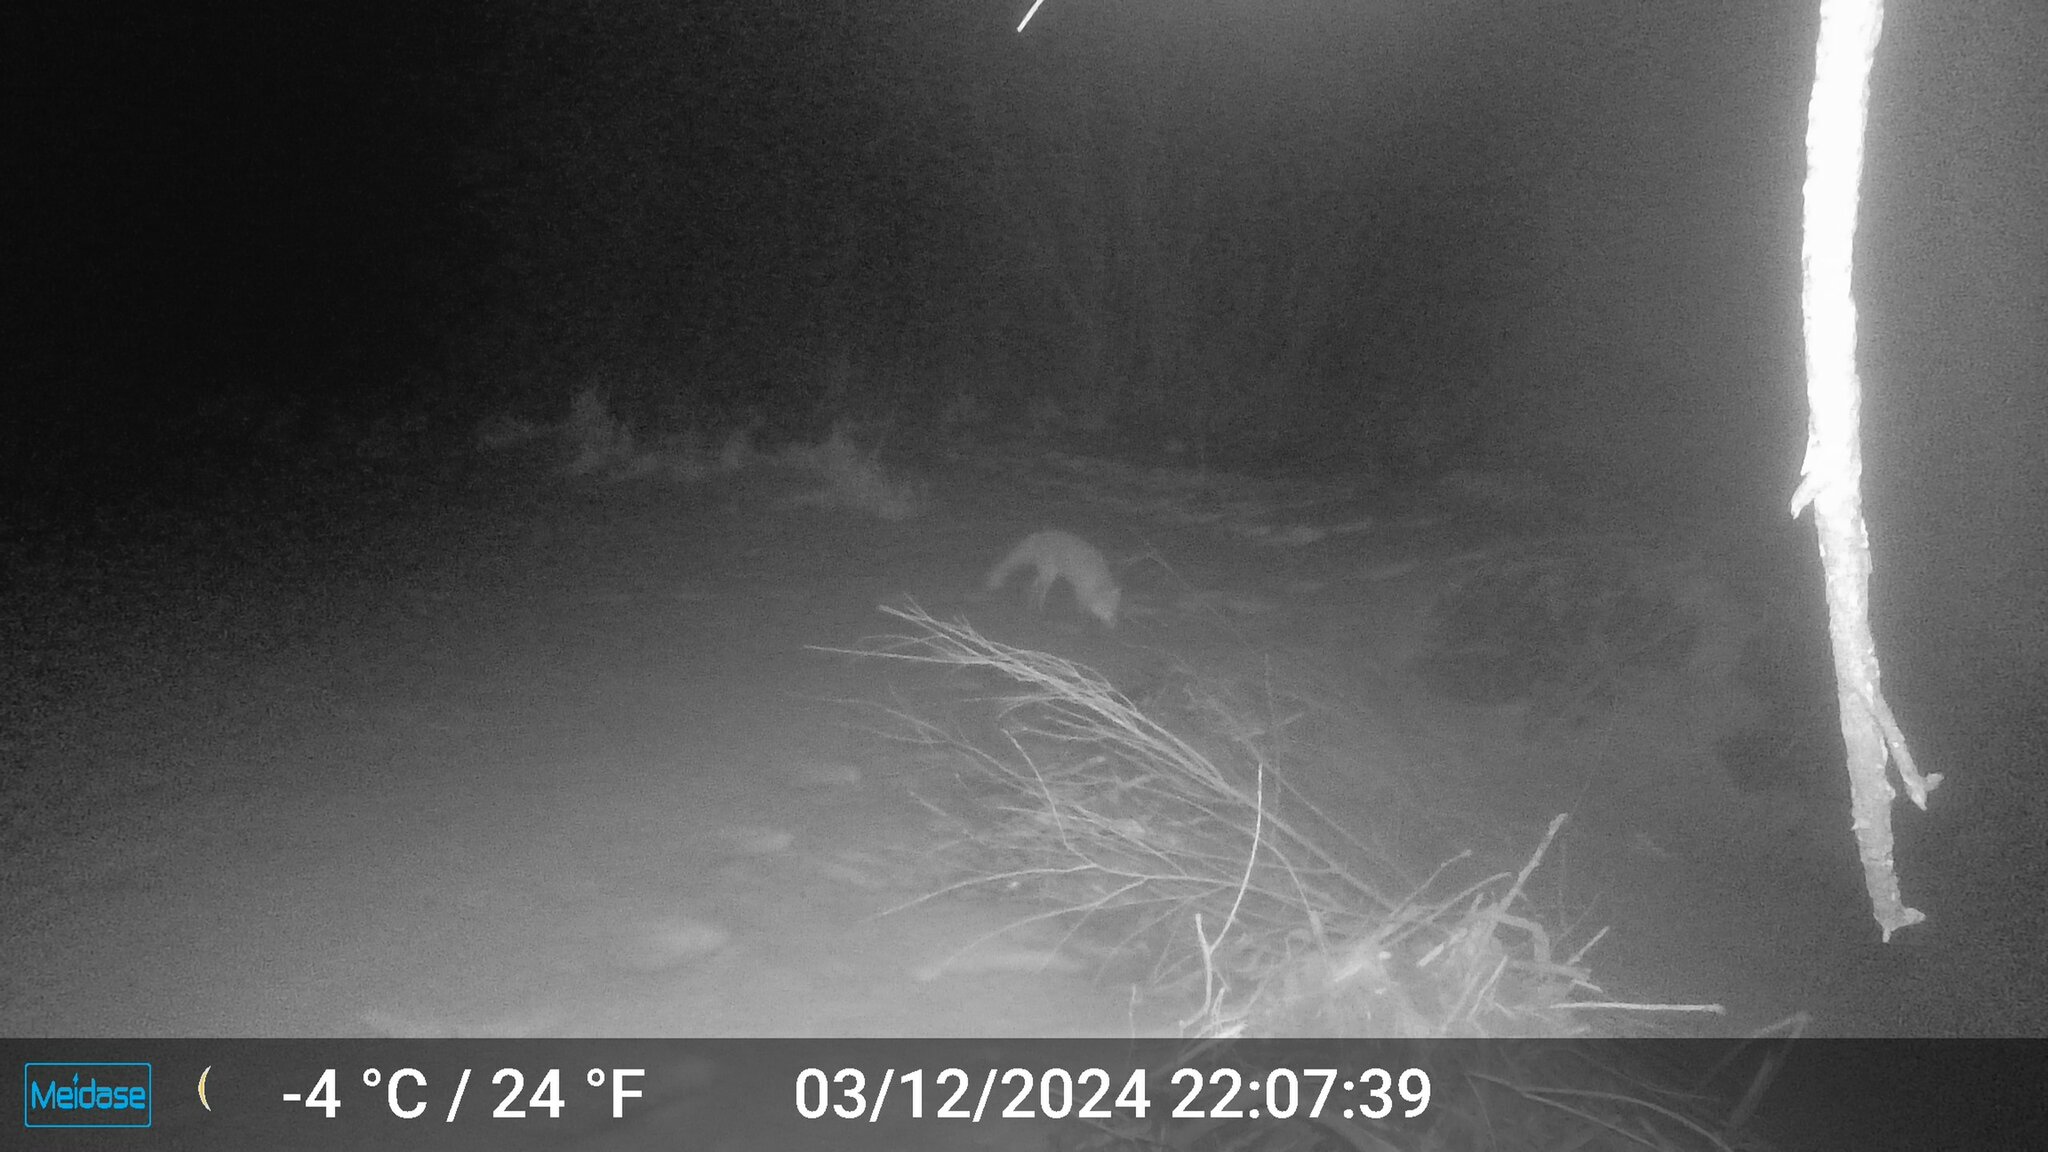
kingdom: Animalia
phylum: Chordata
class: Mammalia
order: Carnivora
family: Canidae
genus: Vulpes
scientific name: Vulpes vulpes
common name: Red fox
